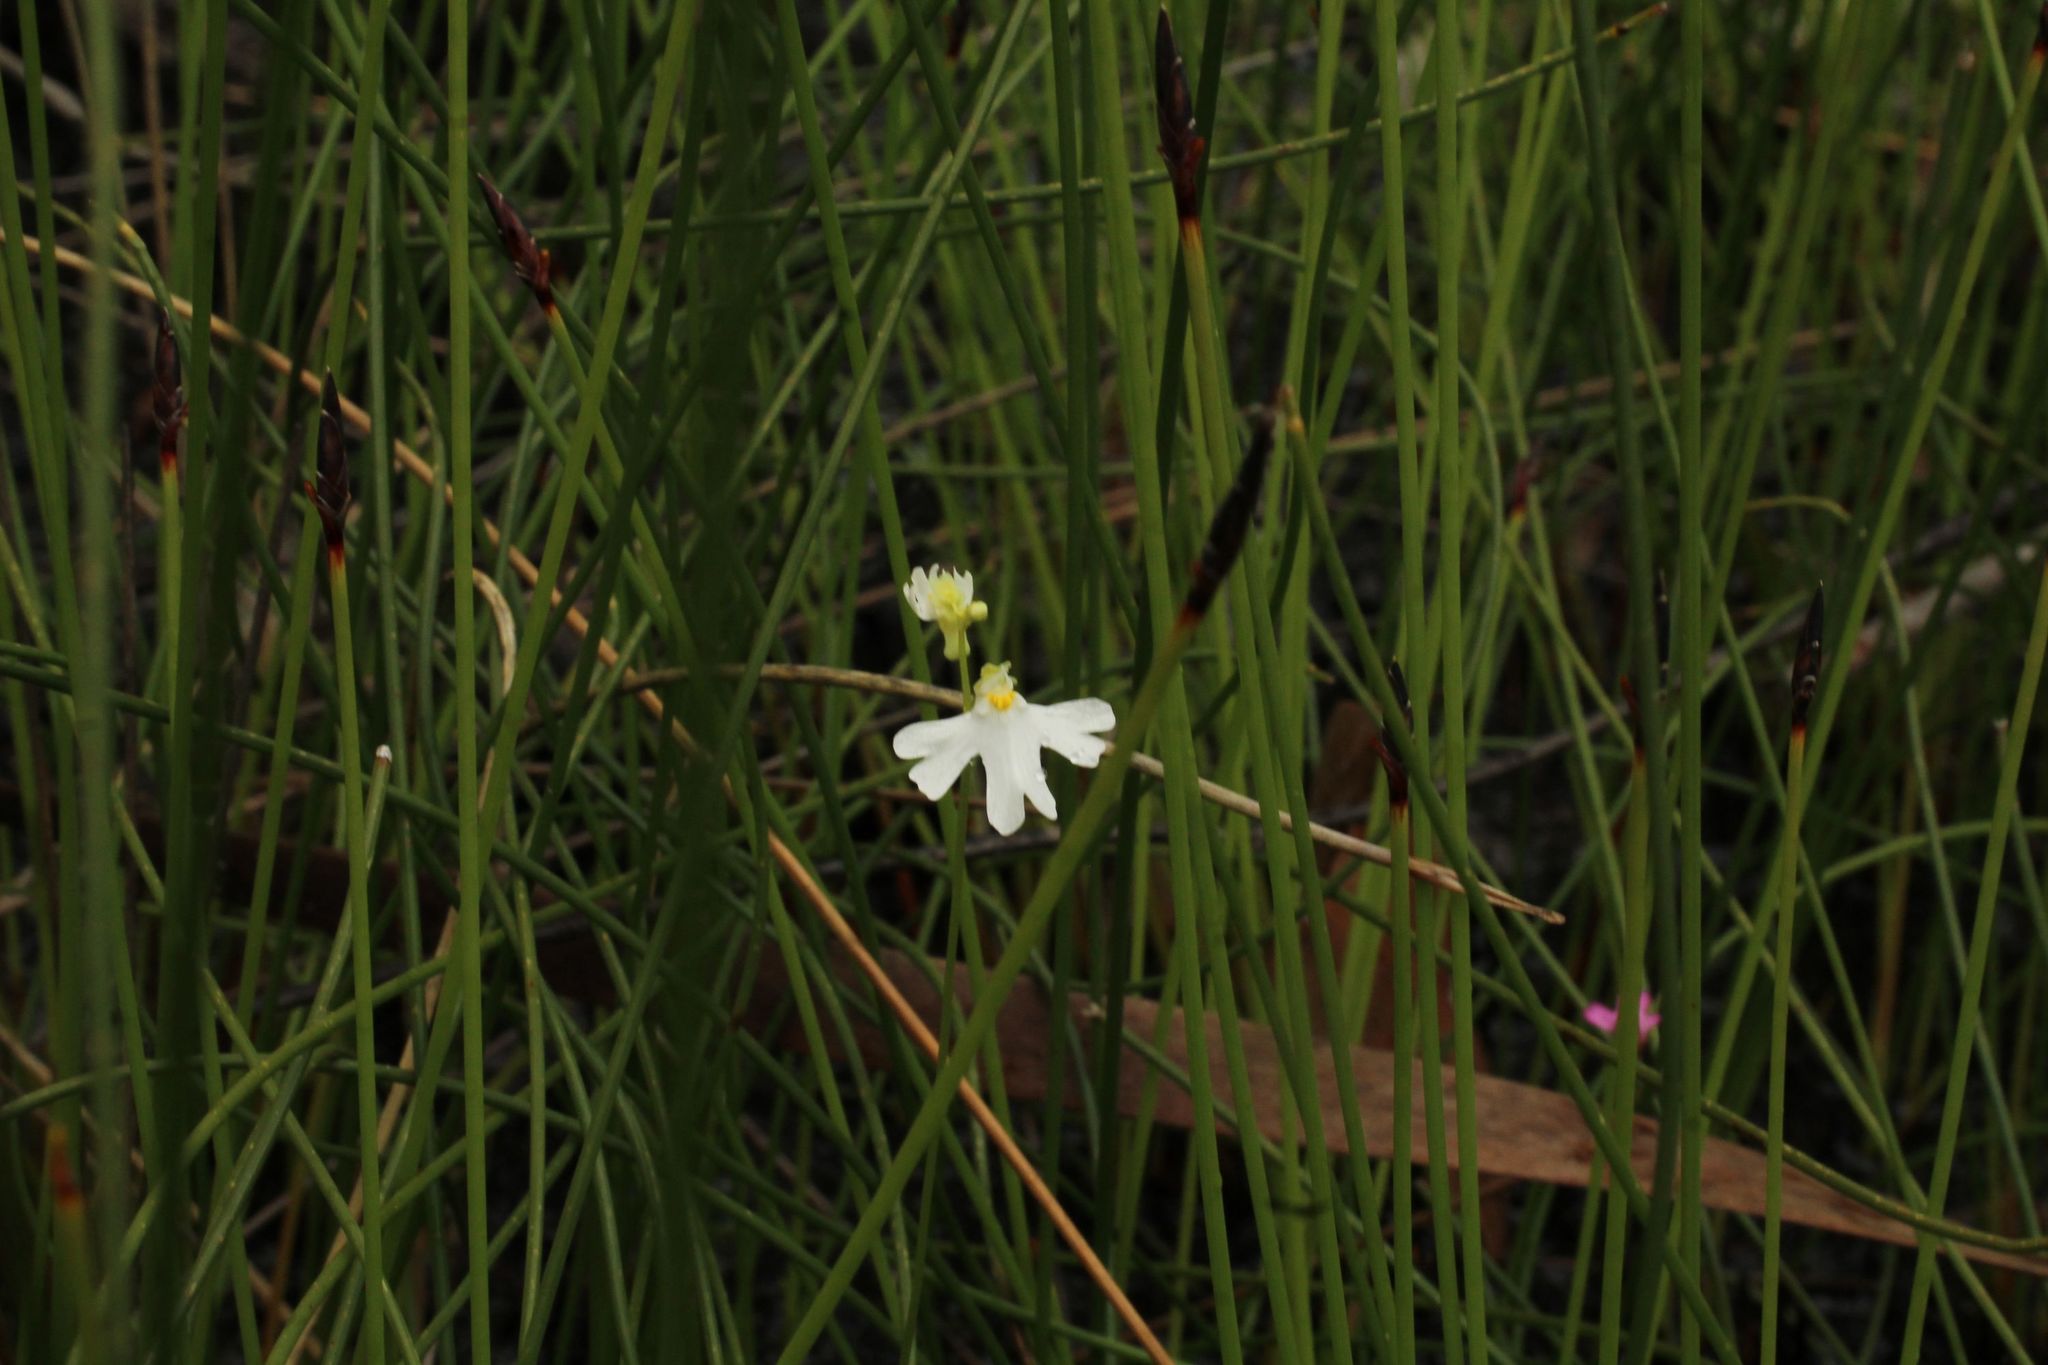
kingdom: Plantae
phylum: Tracheophyta
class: Magnoliopsida
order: Lamiales
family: Lentibulariaceae
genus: Utricularia
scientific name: Utricularia multifida
